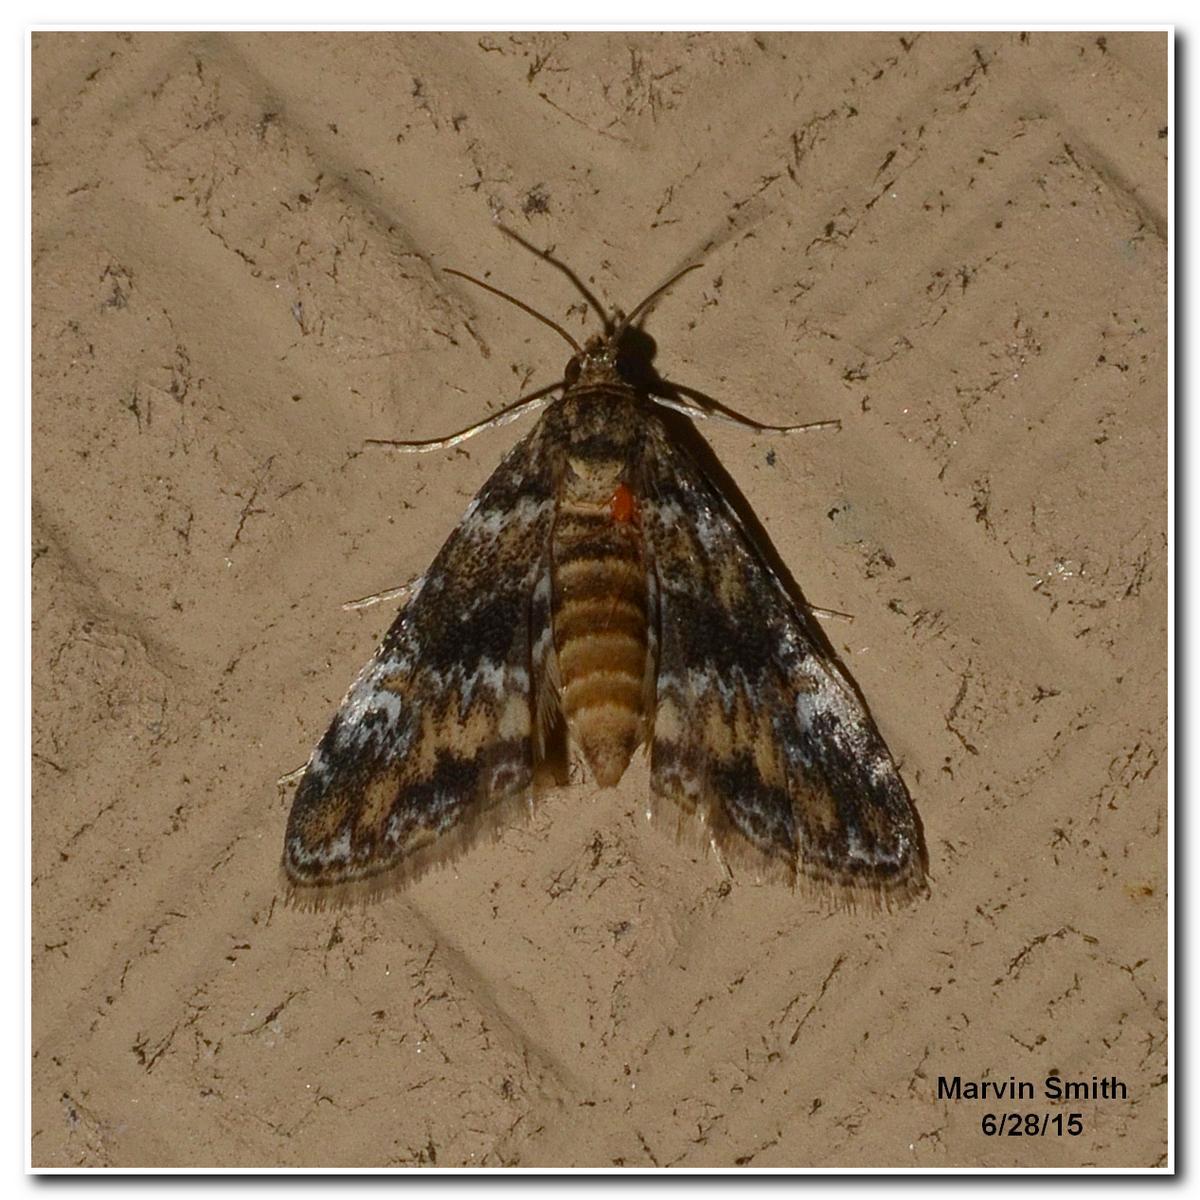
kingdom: Animalia
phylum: Arthropoda
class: Insecta
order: Lepidoptera
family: Crambidae
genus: Elophila
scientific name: Elophila obliteralis
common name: Waterlily leafcutter moth
